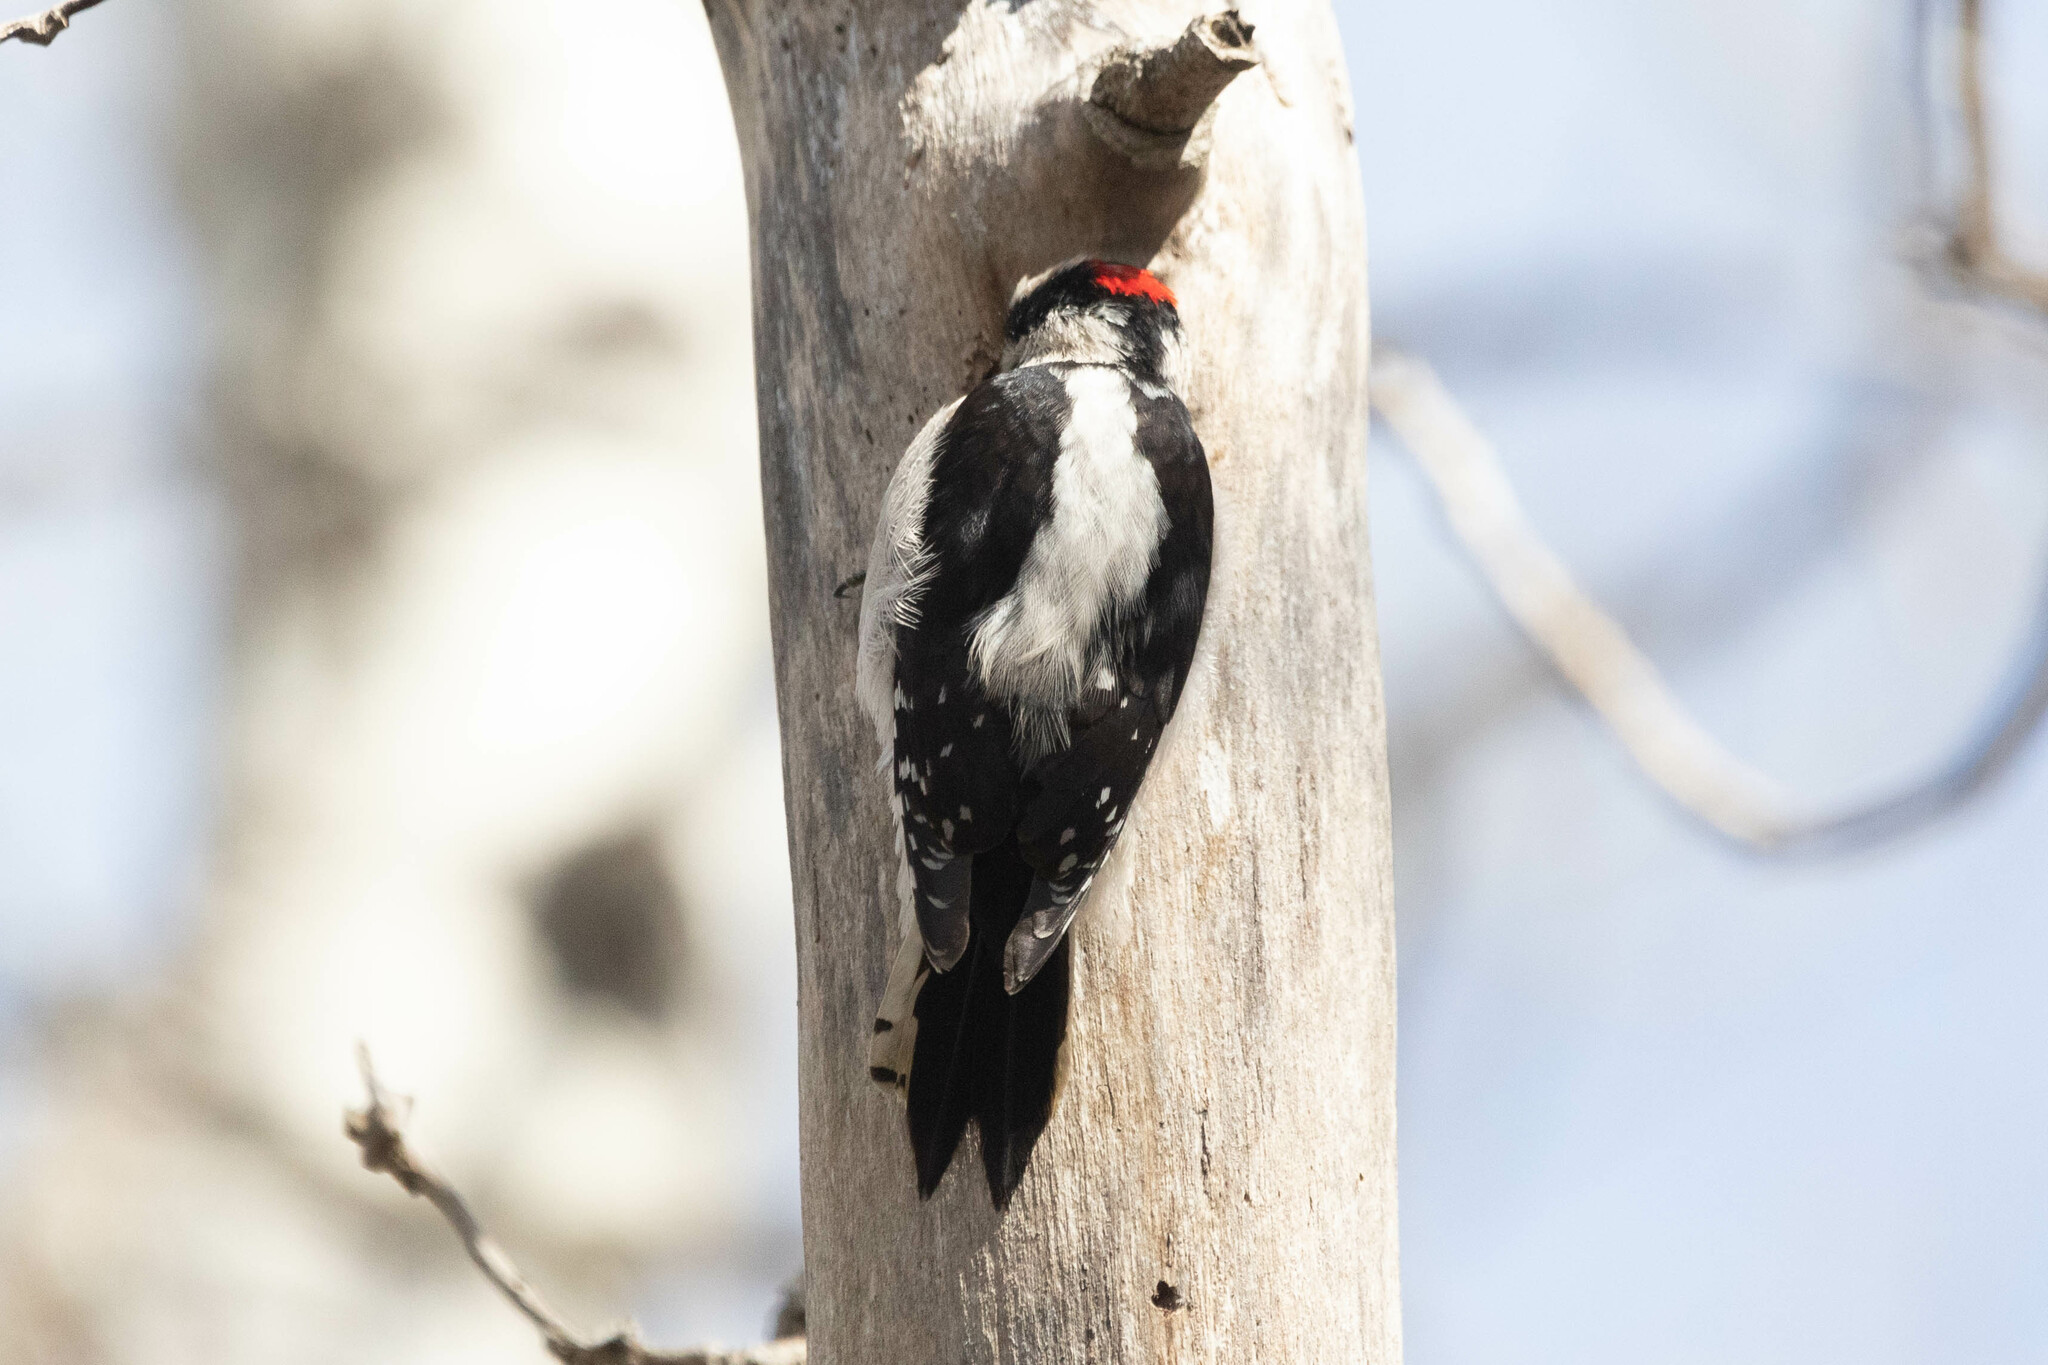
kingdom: Animalia
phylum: Chordata
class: Aves
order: Piciformes
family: Picidae
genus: Dryobates
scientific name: Dryobates pubescens
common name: Downy woodpecker
